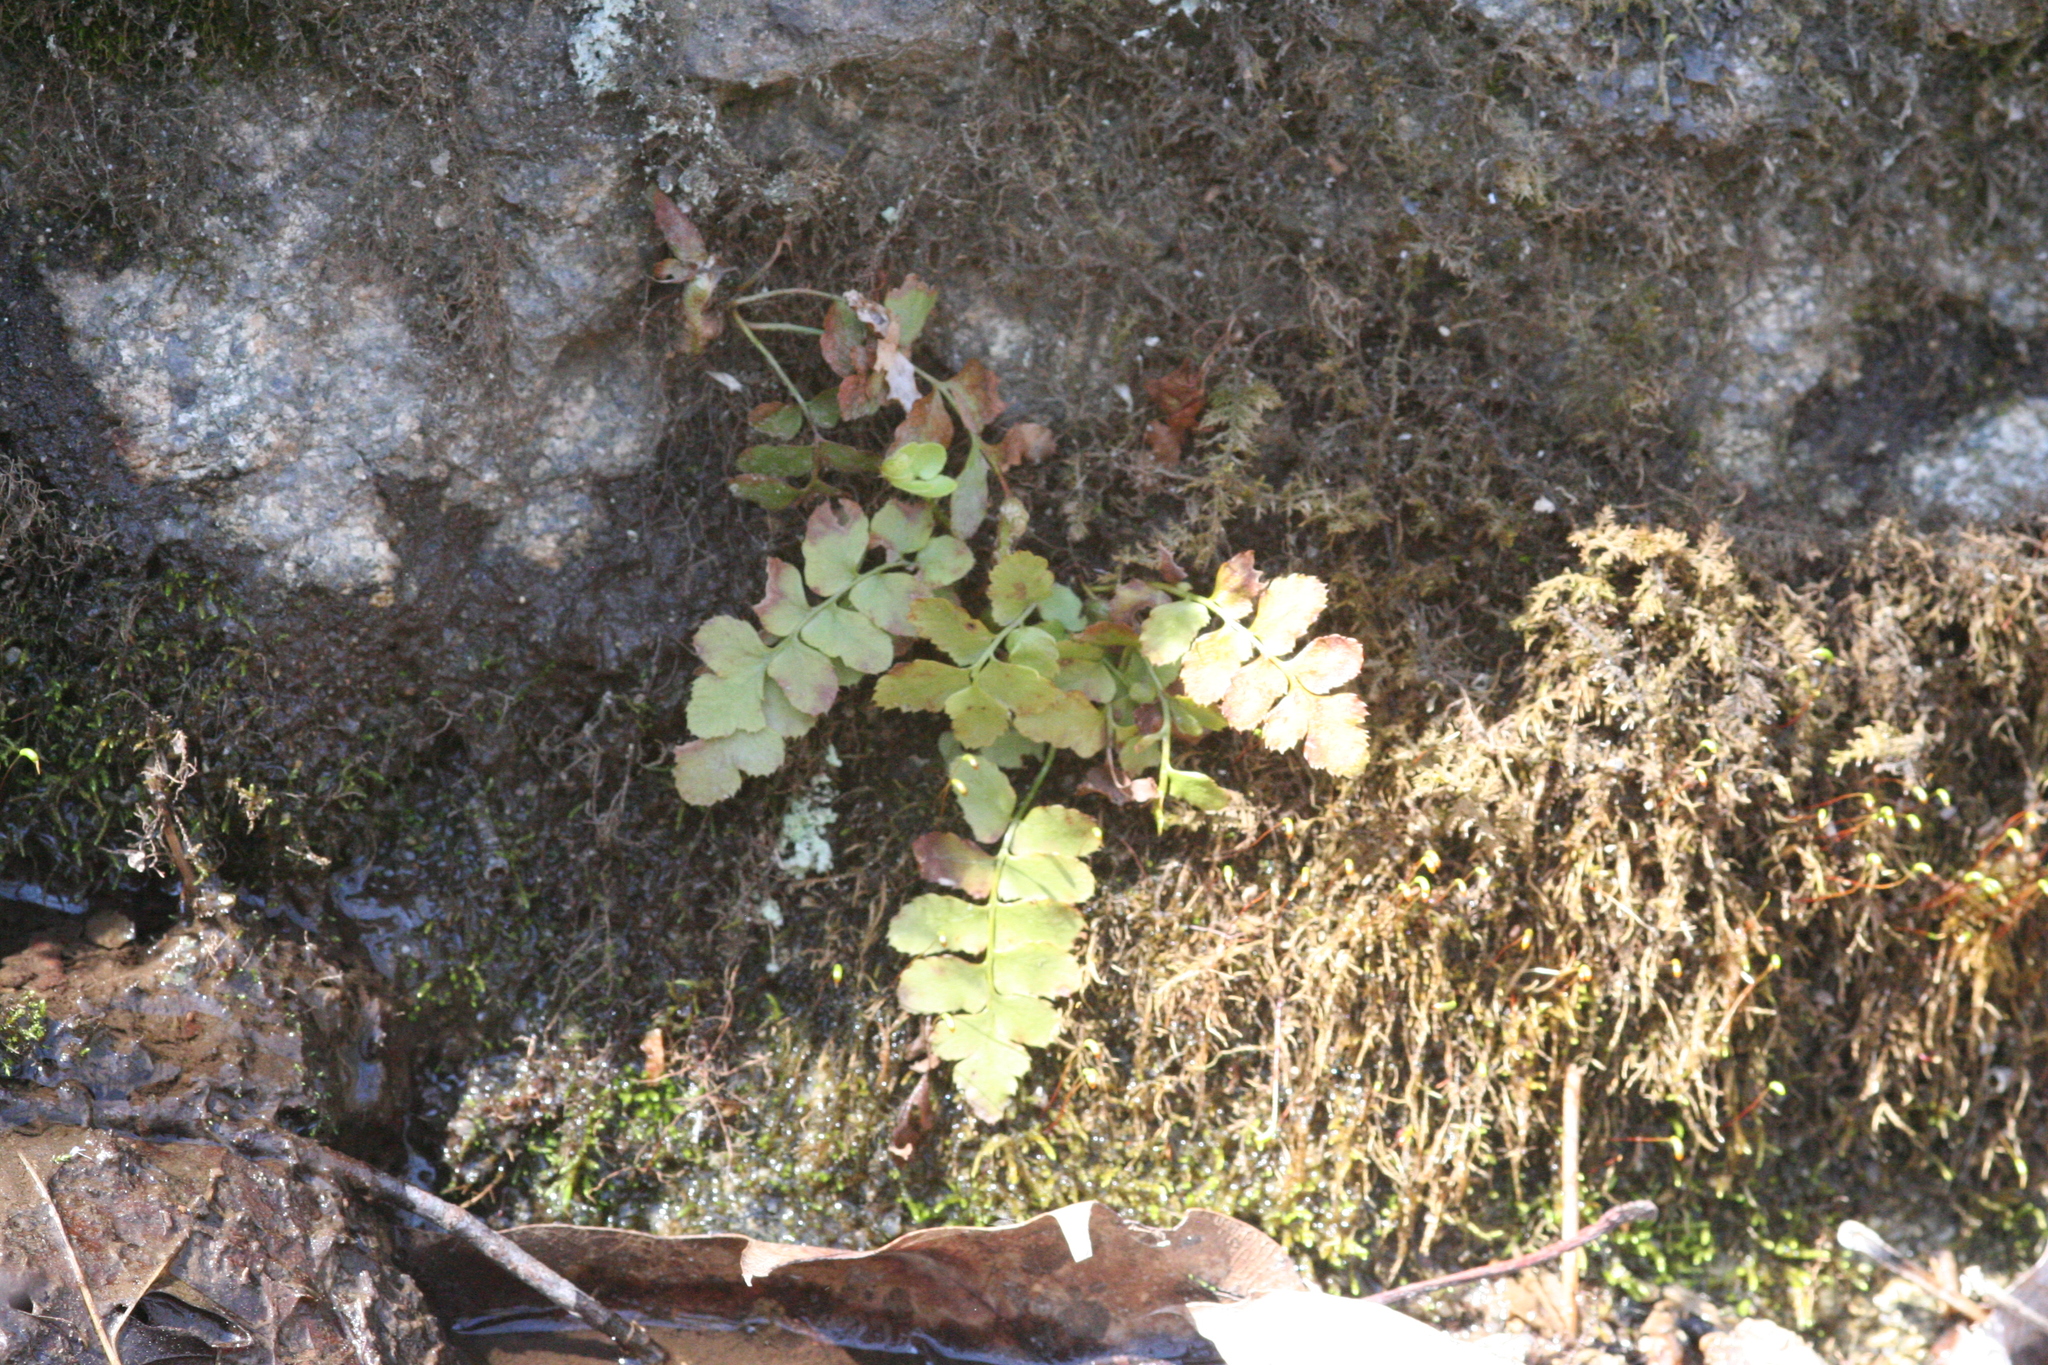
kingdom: Plantae
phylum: Tracheophyta
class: Polypodiopsida
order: Polypodiales
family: Dryopteridaceae
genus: Polystichum
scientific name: Polystichum acrostichoides
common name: Christmas fern
